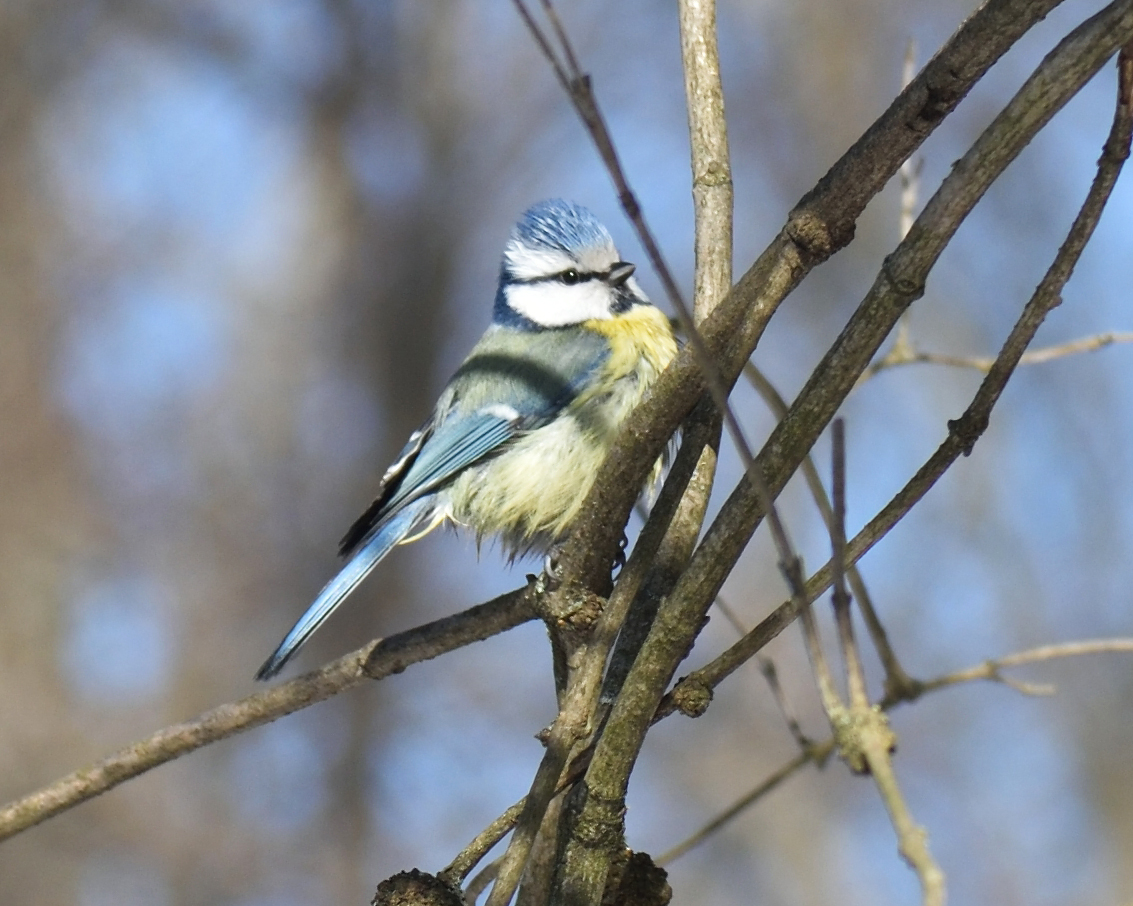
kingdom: Animalia
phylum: Chordata
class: Aves
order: Passeriformes
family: Paridae
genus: Cyanistes
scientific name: Cyanistes caeruleus
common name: Eurasian blue tit
